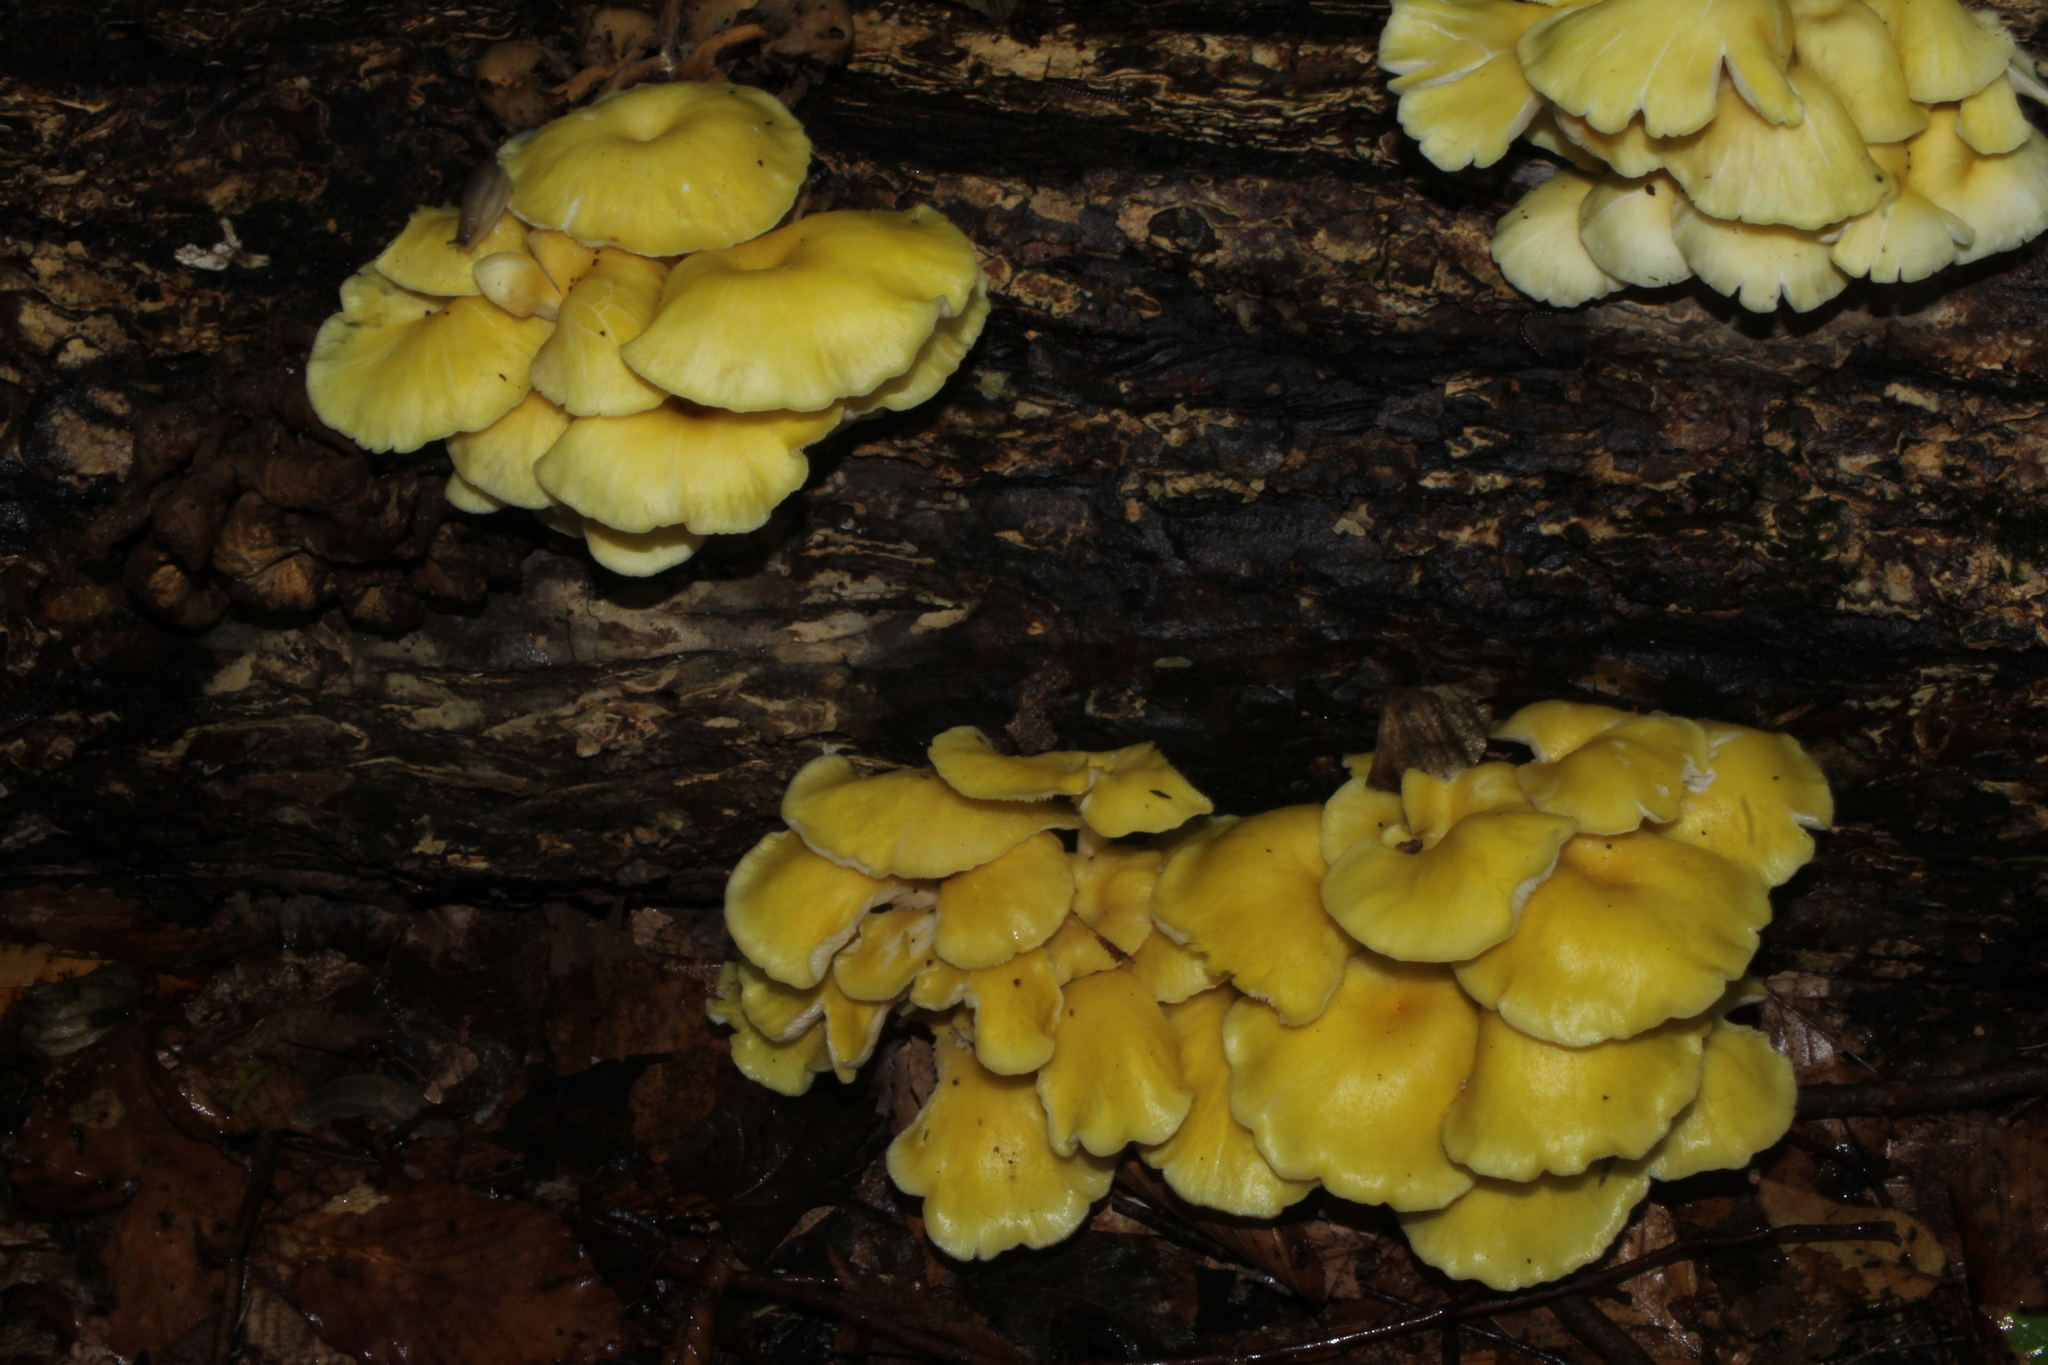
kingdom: Fungi
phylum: Basidiomycota
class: Agaricomycetes
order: Agaricales
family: Pleurotaceae
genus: Pleurotus
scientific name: Pleurotus citrinopileatus
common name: Golden oyster mushroom
